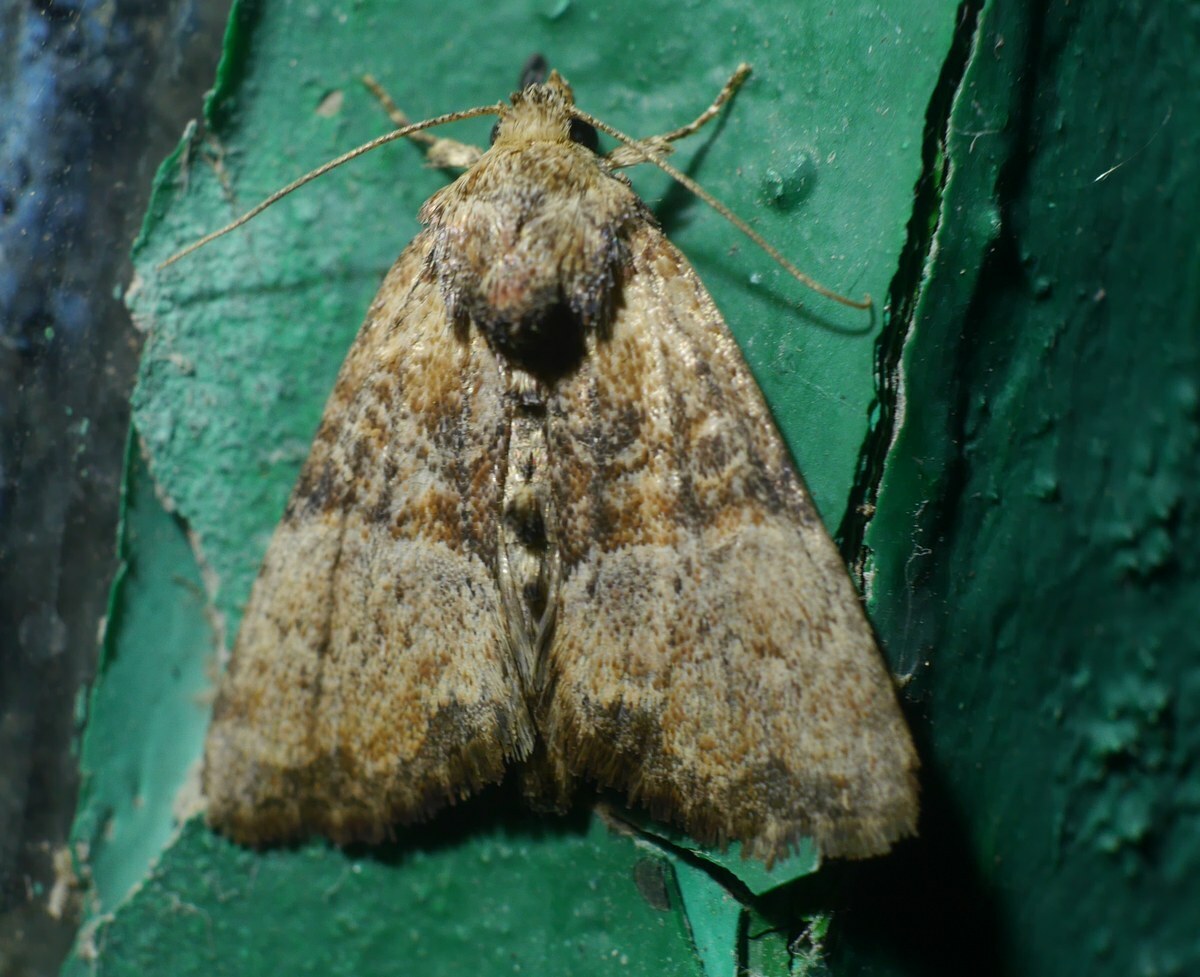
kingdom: Animalia
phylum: Arthropoda
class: Insecta
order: Lepidoptera
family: Noctuidae
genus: Mesoligia
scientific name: Mesoligia furuncula
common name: Cloaked minor
